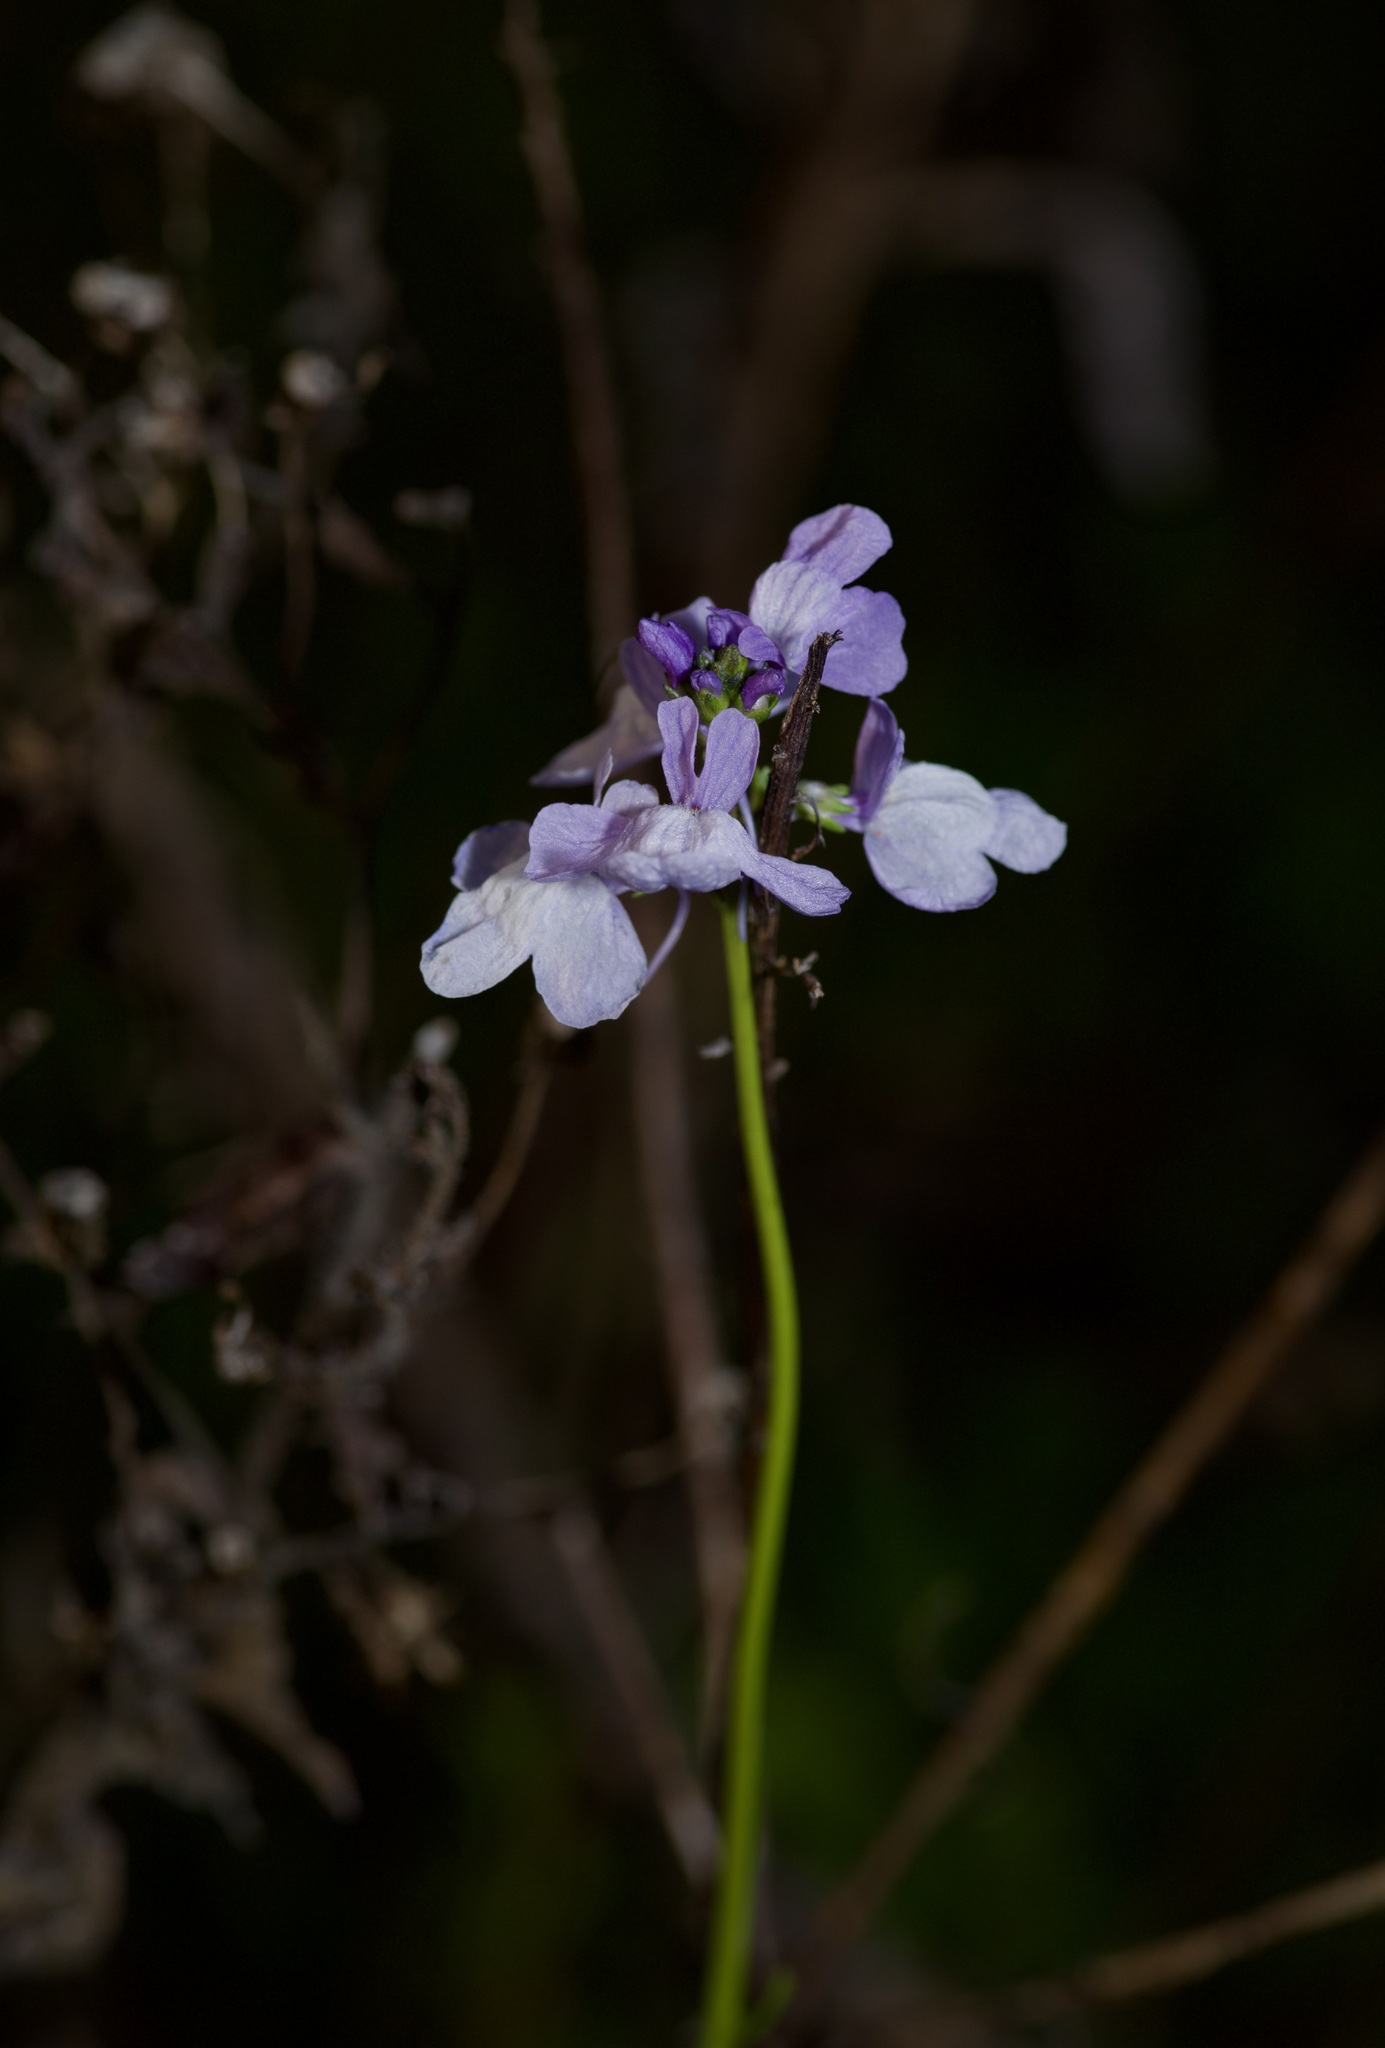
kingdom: Plantae
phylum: Tracheophyta
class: Magnoliopsida
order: Lamiales
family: Plantaginaceae
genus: Nuttallanthus
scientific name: Nuttallanthus texanus
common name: Texas toadflax
